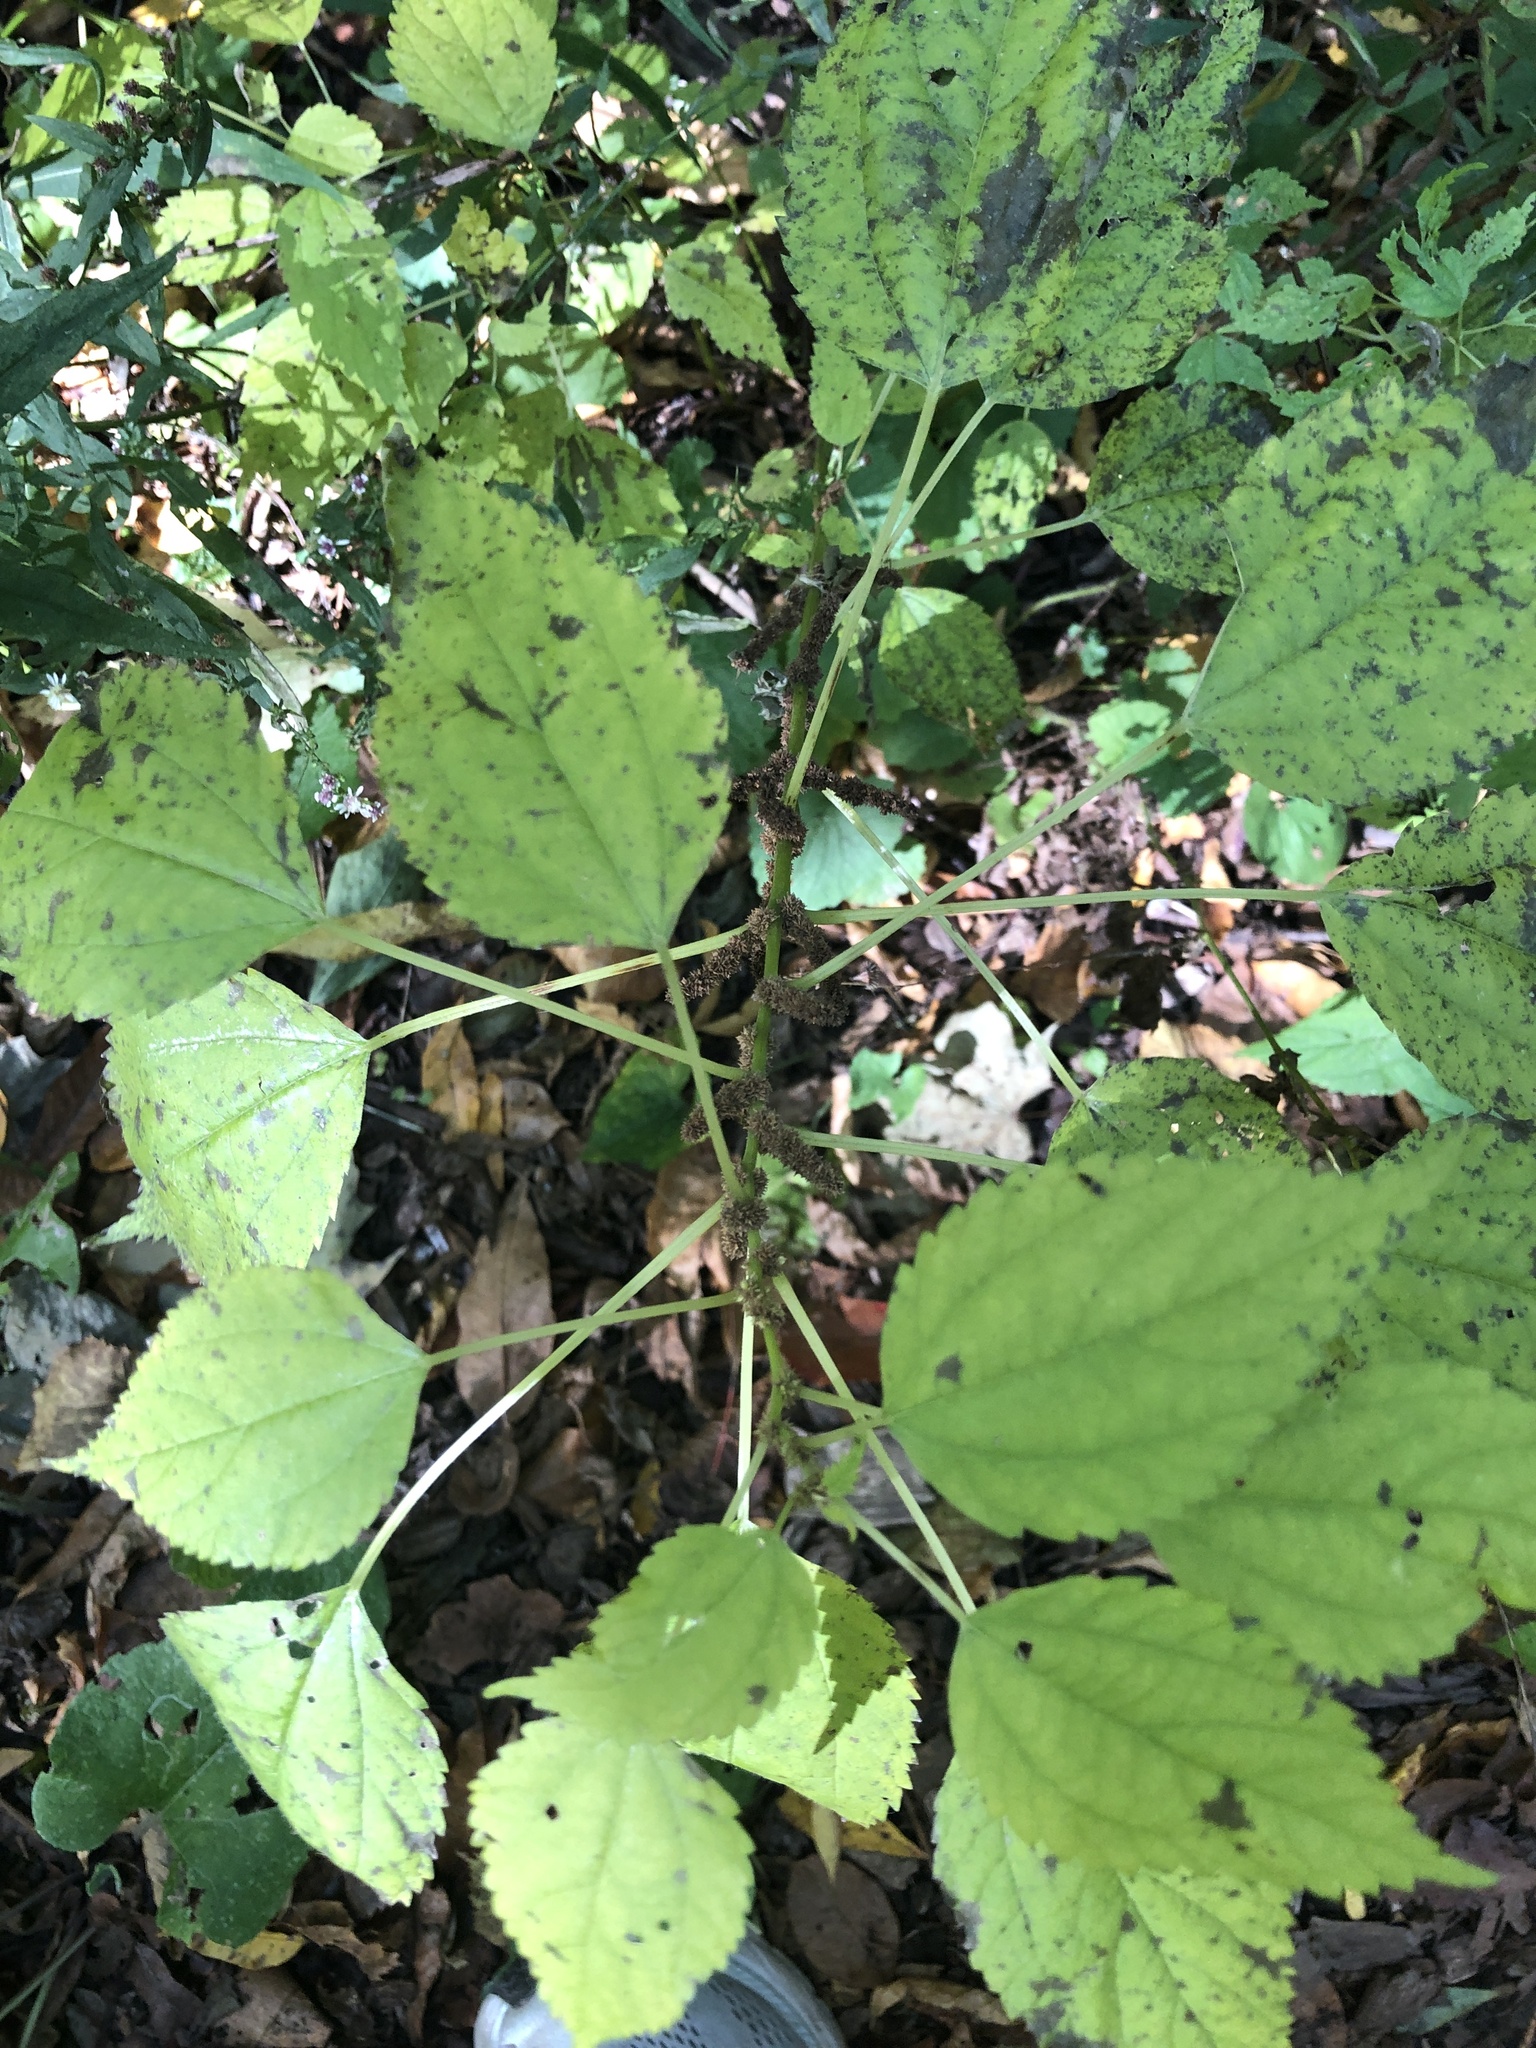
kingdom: Plantae
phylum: Tracheophyta
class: Magnoliopsida
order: Rosales
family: Urticaceae
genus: Boehmeria
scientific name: Boehmeria cylindrica
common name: Bog-hemp
